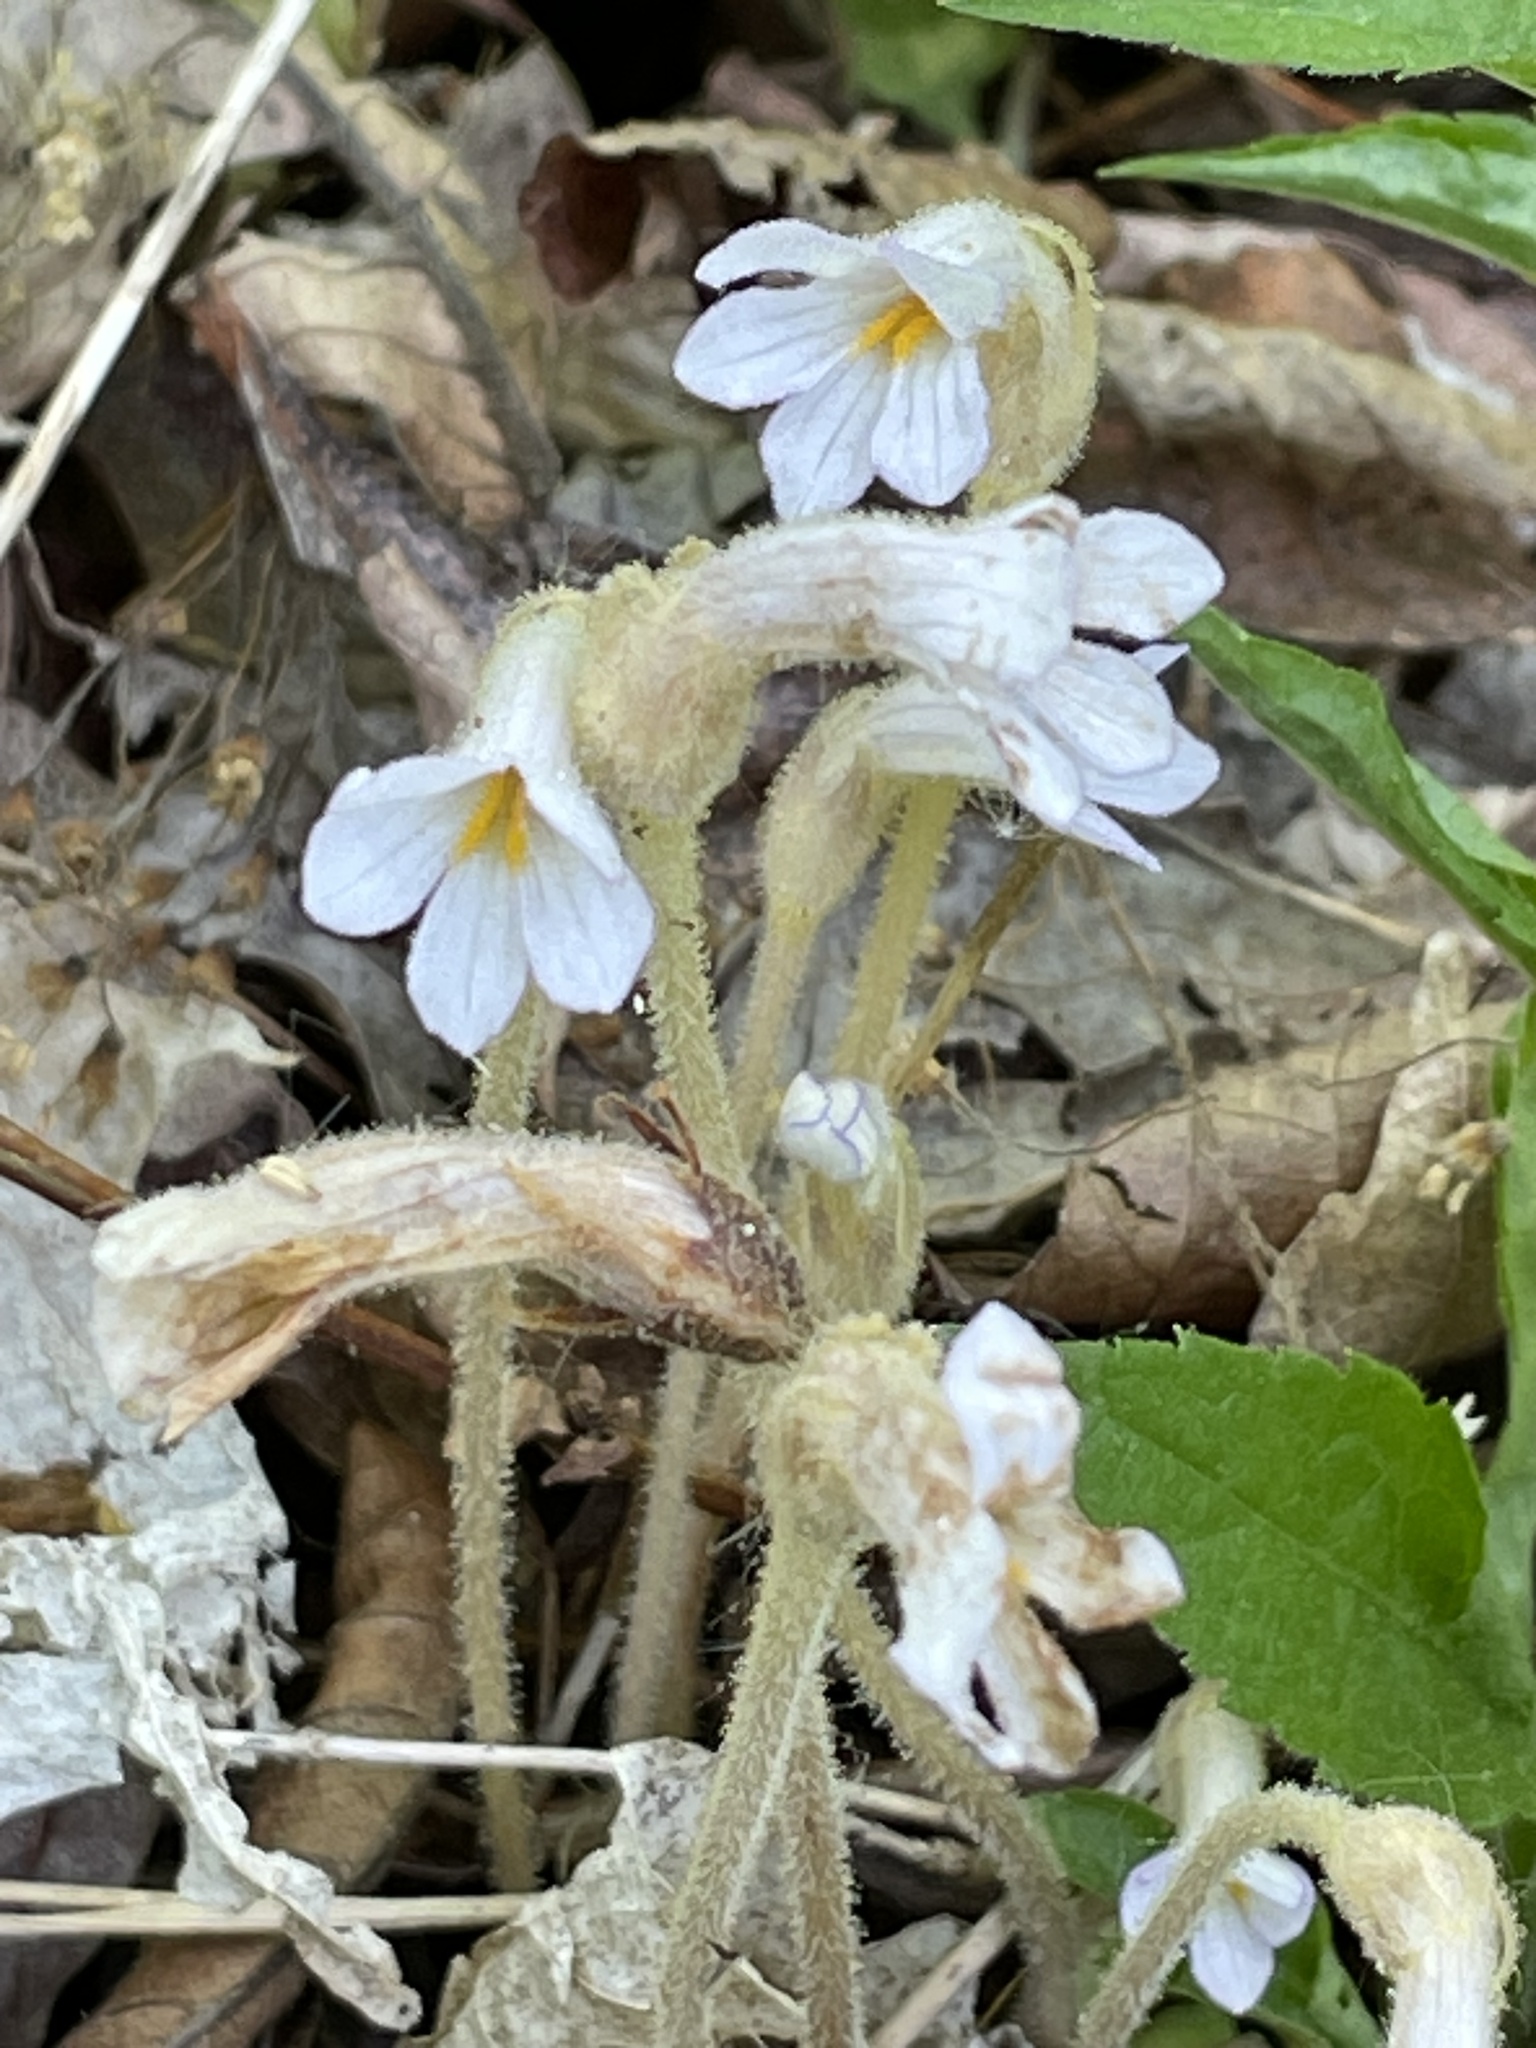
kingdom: Plantae
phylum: Tracheophyta
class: Magnoliopsida
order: Lamiales
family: Orobanchaceae
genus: Aphyllon
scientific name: Aphyllon uniflorum
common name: One-flowered broomrape
